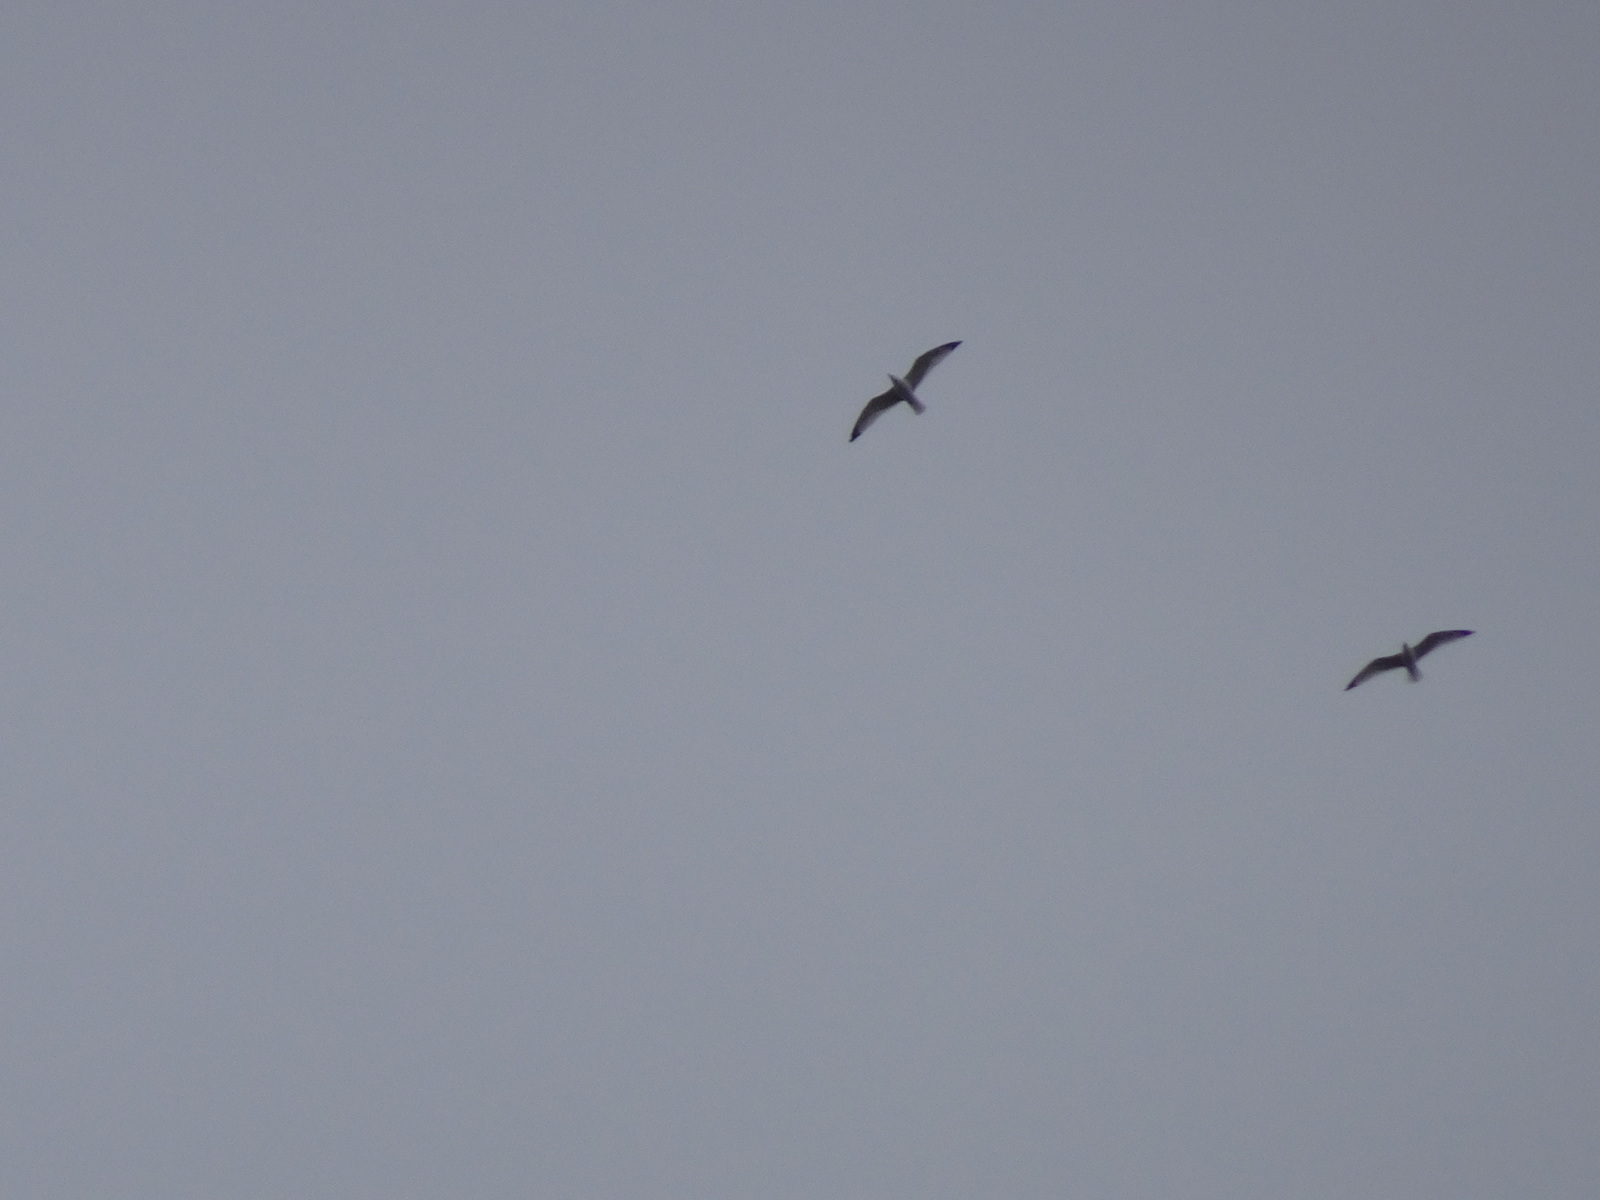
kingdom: Animalia
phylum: Chordata
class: Aves
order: Charadriiformes
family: Laridae
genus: Larus
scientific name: Larus delawarensis
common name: Ring-billed gull
